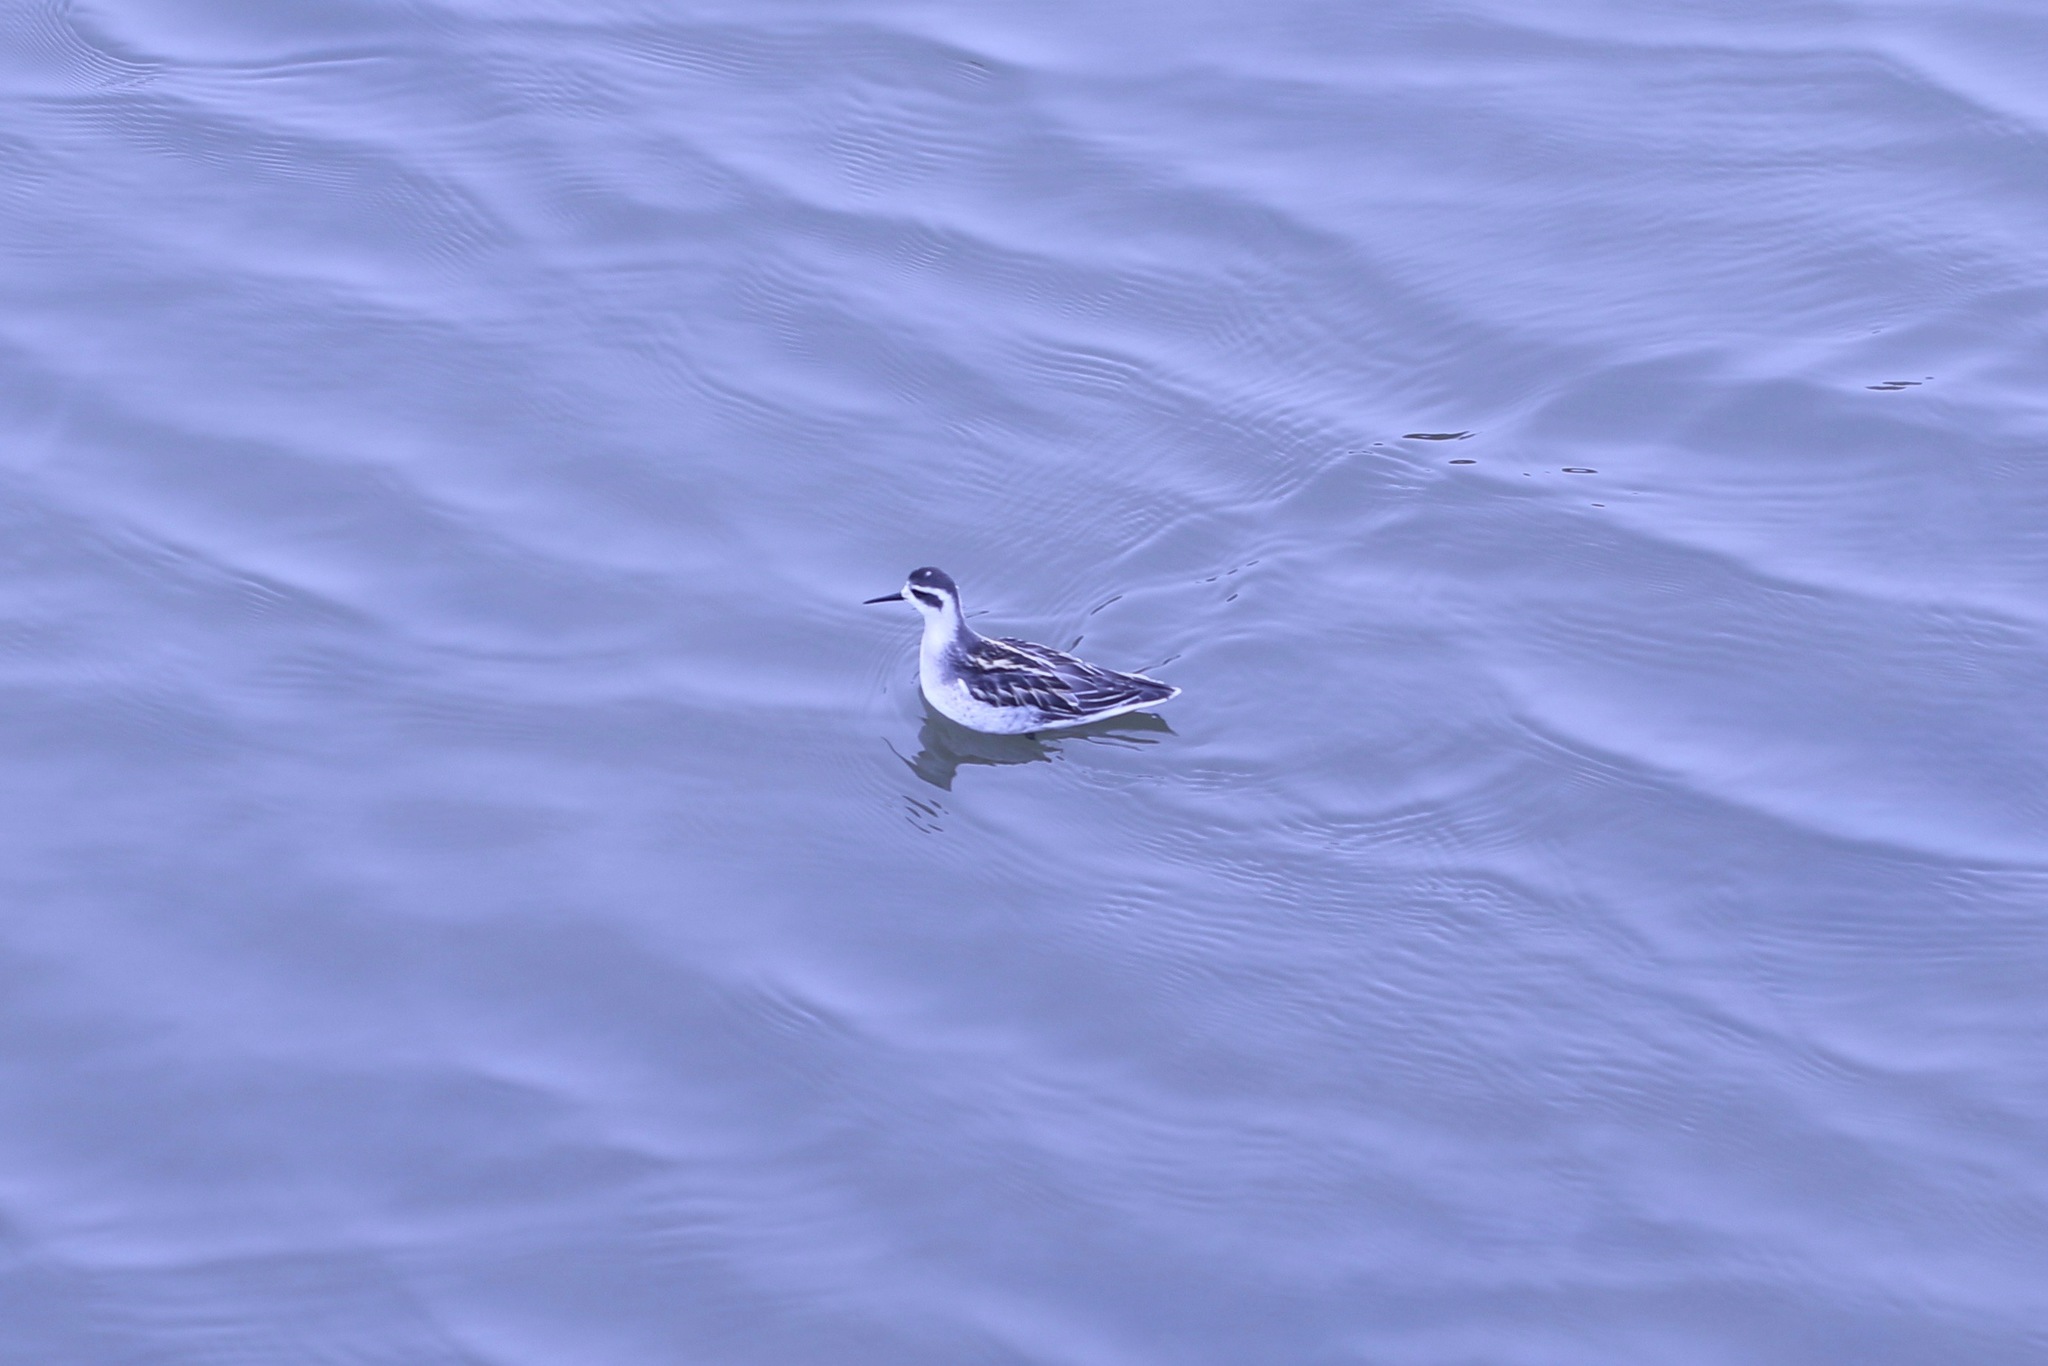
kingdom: Animalia
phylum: Chordata
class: Aves
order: Charadriiformes
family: Scolopacidae
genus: Phalaropus
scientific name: Phalaropus lobatus
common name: Red-necked phalarope
